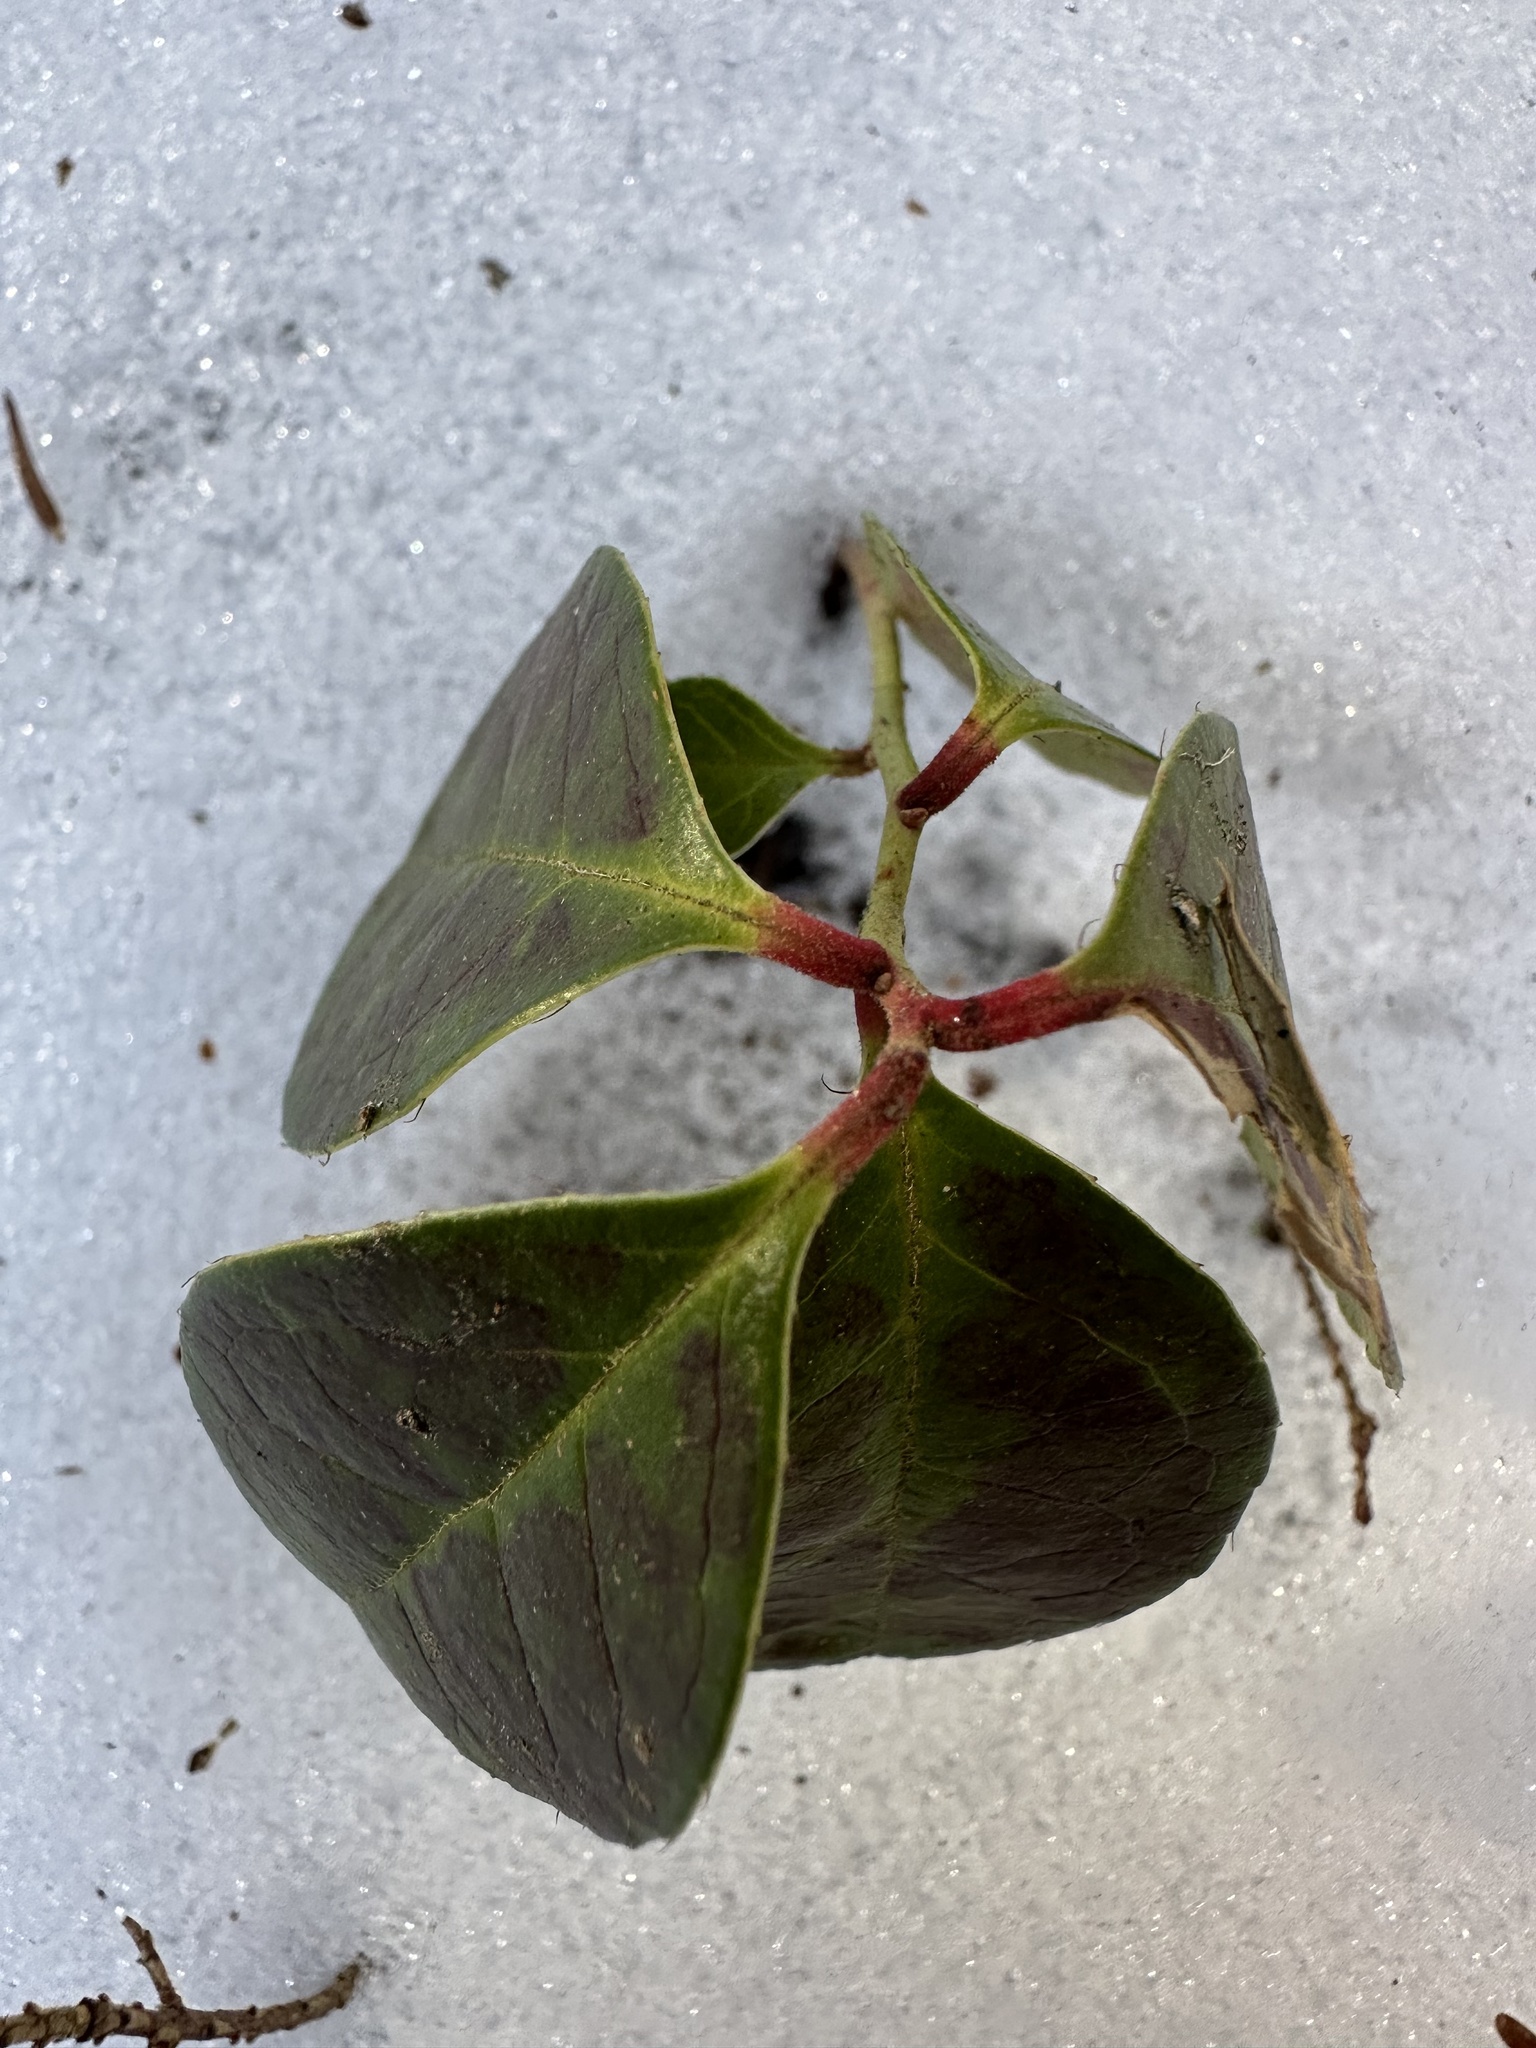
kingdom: Plantae
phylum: Tracheophyta
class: Magnoliopsida
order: Ericales
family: Ericaceae
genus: Gaultheria
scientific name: Gaultheria procumbens
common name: Checkerberry
